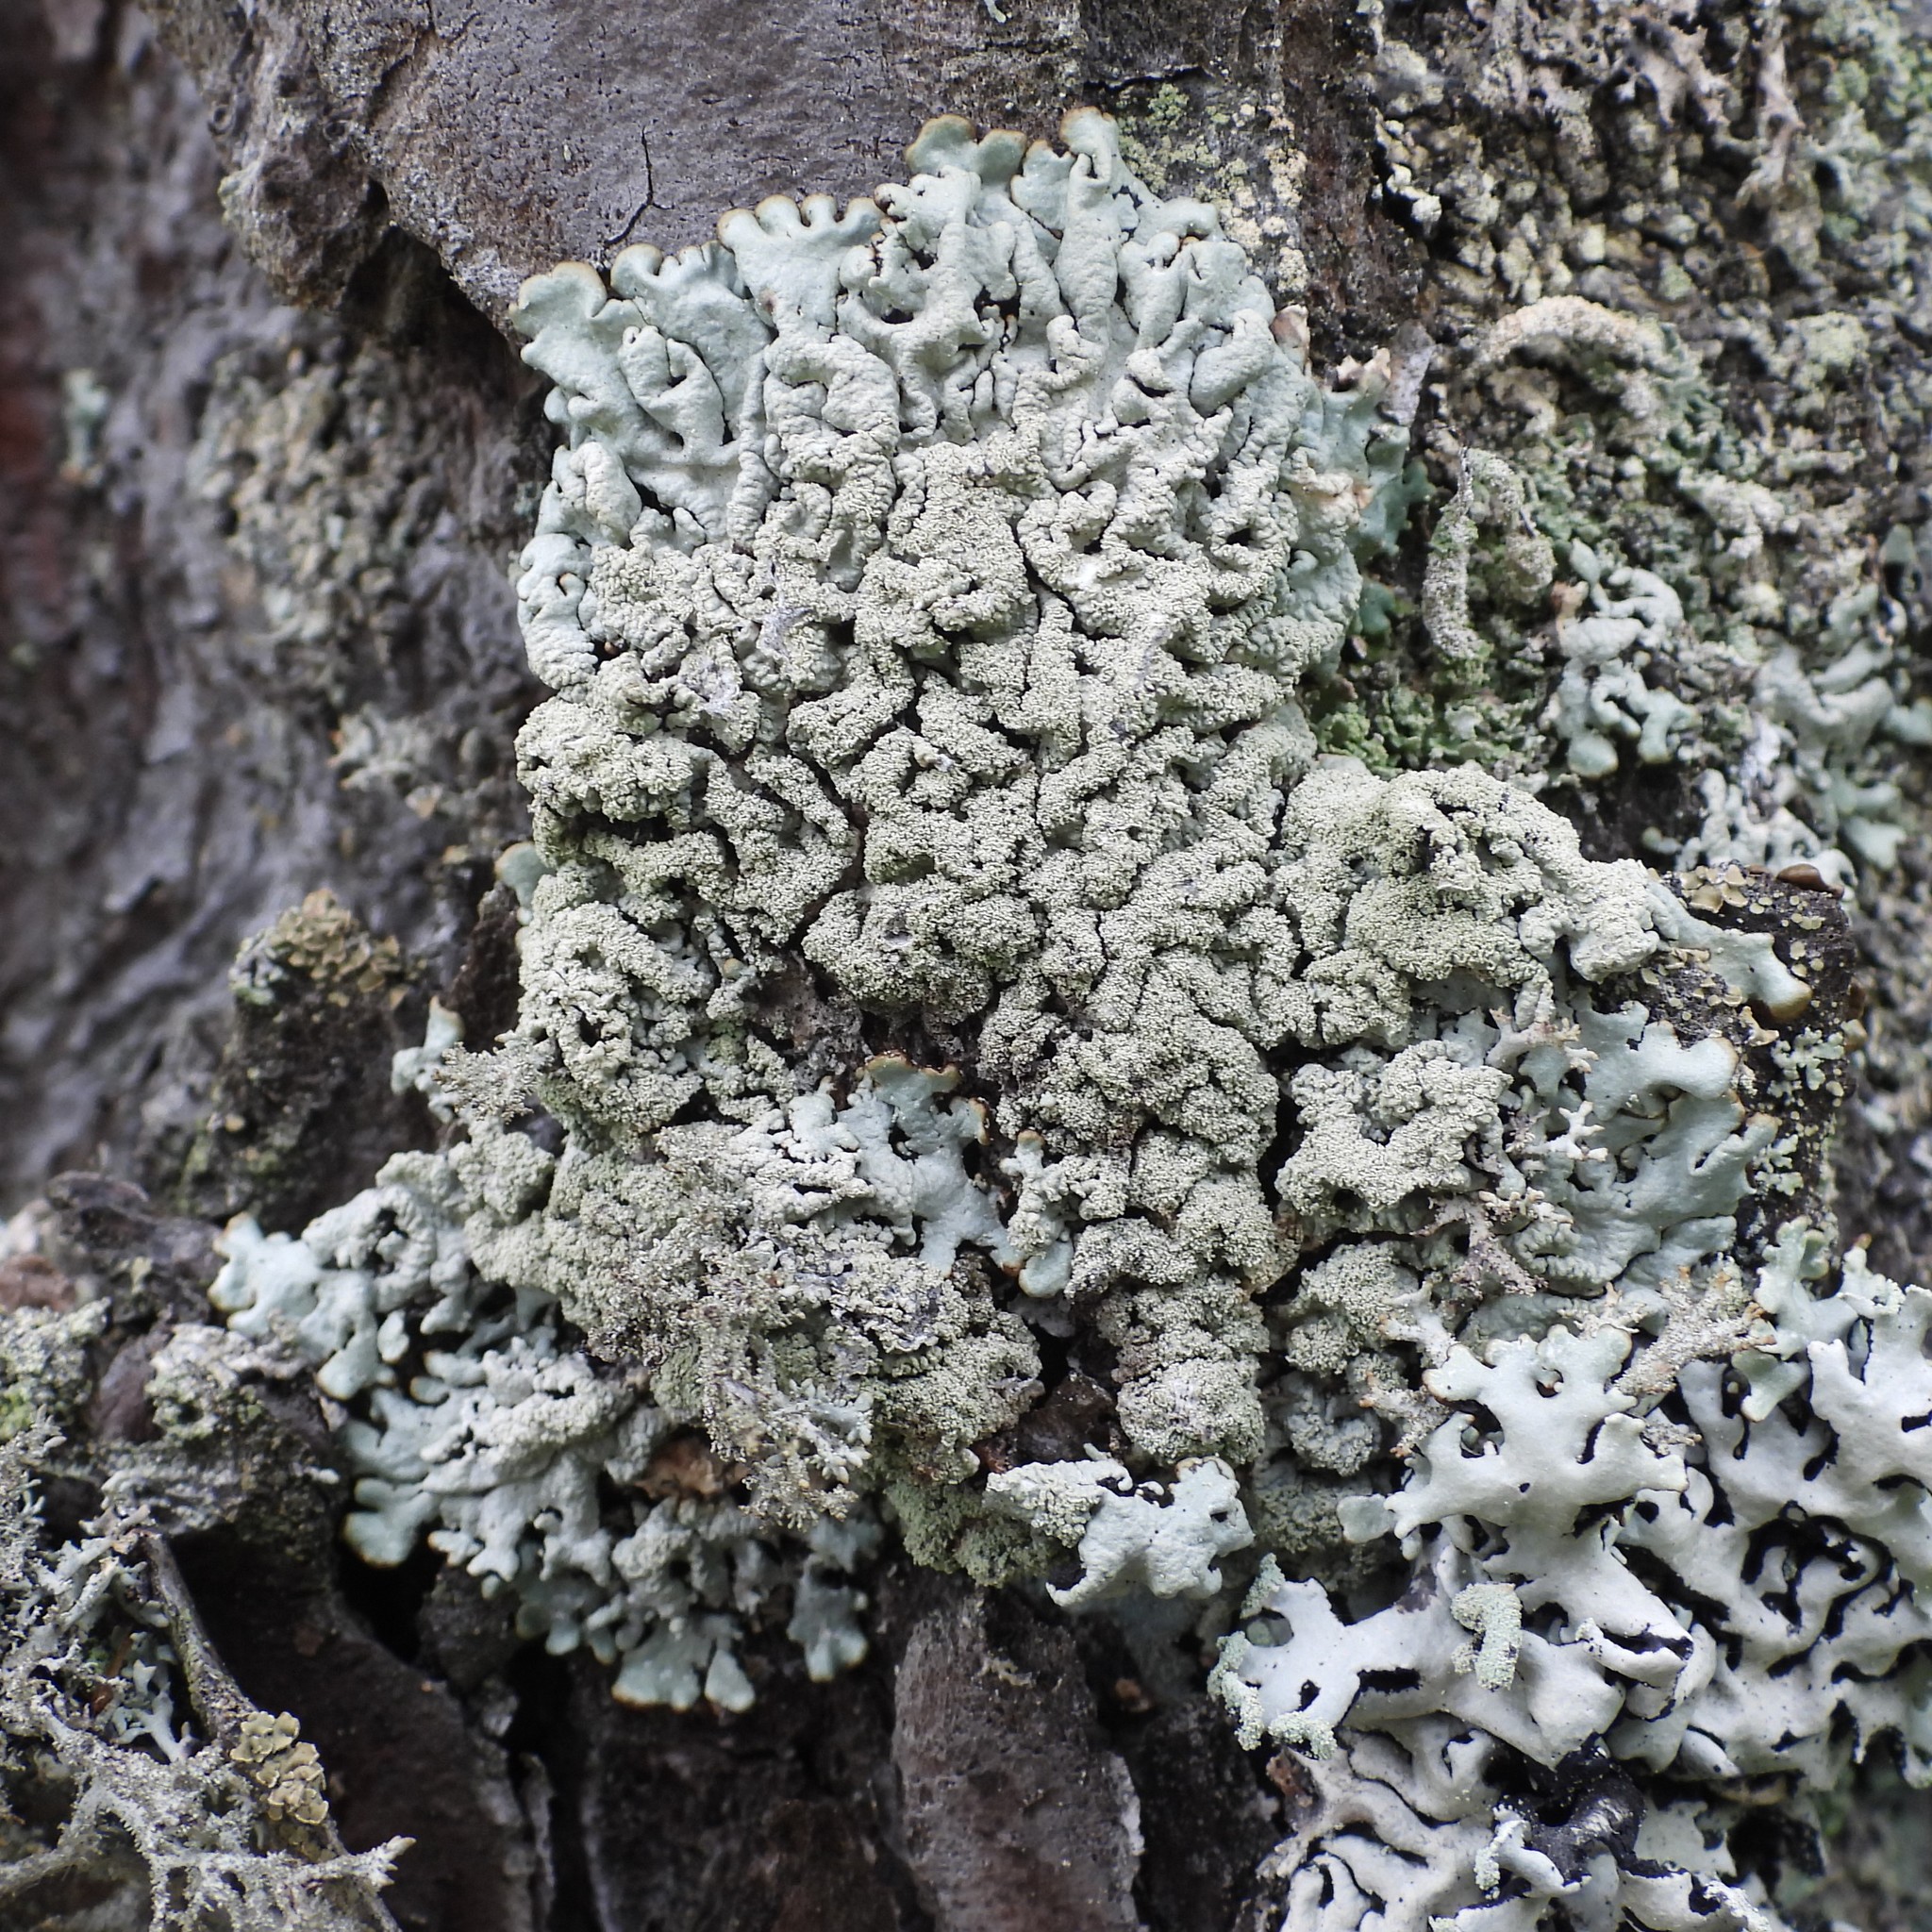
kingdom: Fungi
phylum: Ascomycota
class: Lecanoromycetes
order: Lecanorales
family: Parmeliaceae
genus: Hypogymnia
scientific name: Hypogymnia farinacea
